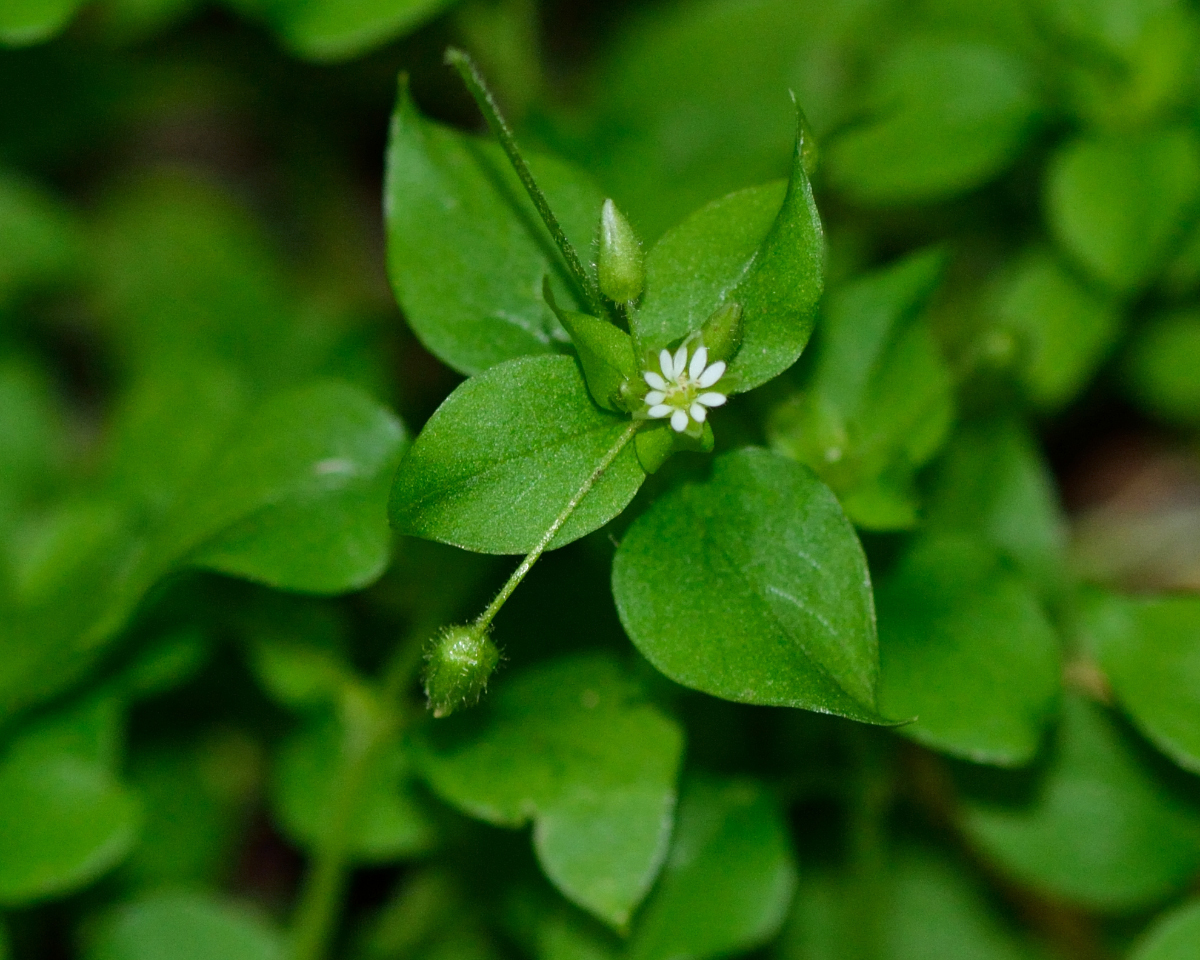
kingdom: Plantae
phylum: Tracheophyta
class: Magnoliopsida
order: Caryophyllales
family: Caryophyllaceae
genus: Stellaria
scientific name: Stellaria media
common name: Common chickweed
